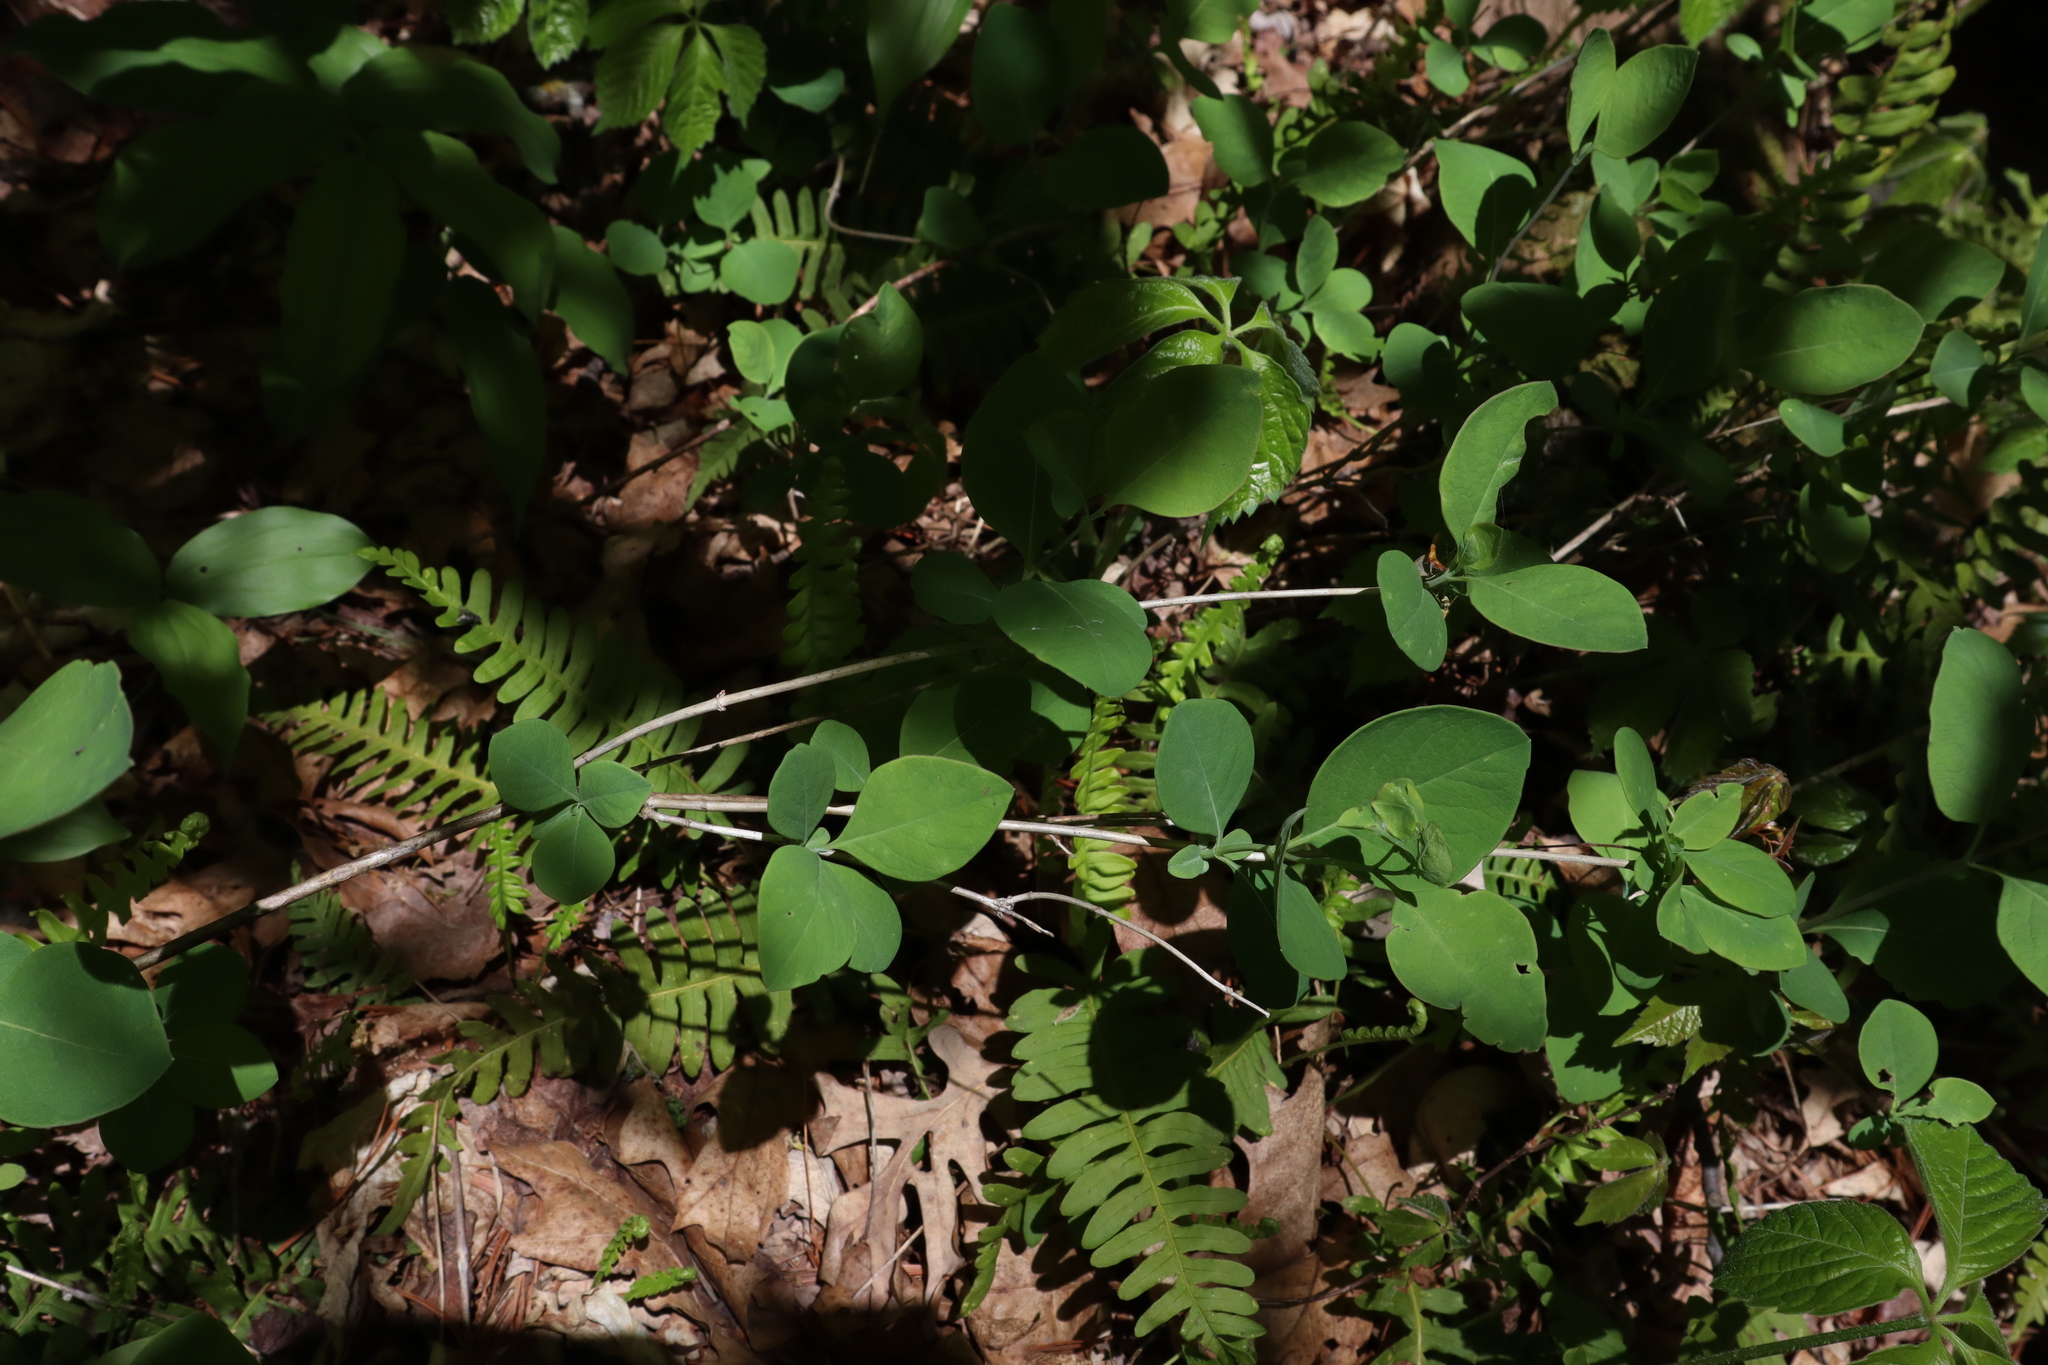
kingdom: Plantae
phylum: Tracheophyta
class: Magnoliopsida
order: Dipsacales
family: Caprifoliaceae
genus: Lonicera
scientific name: Lonicera dioica
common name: Limber honeysuckle
